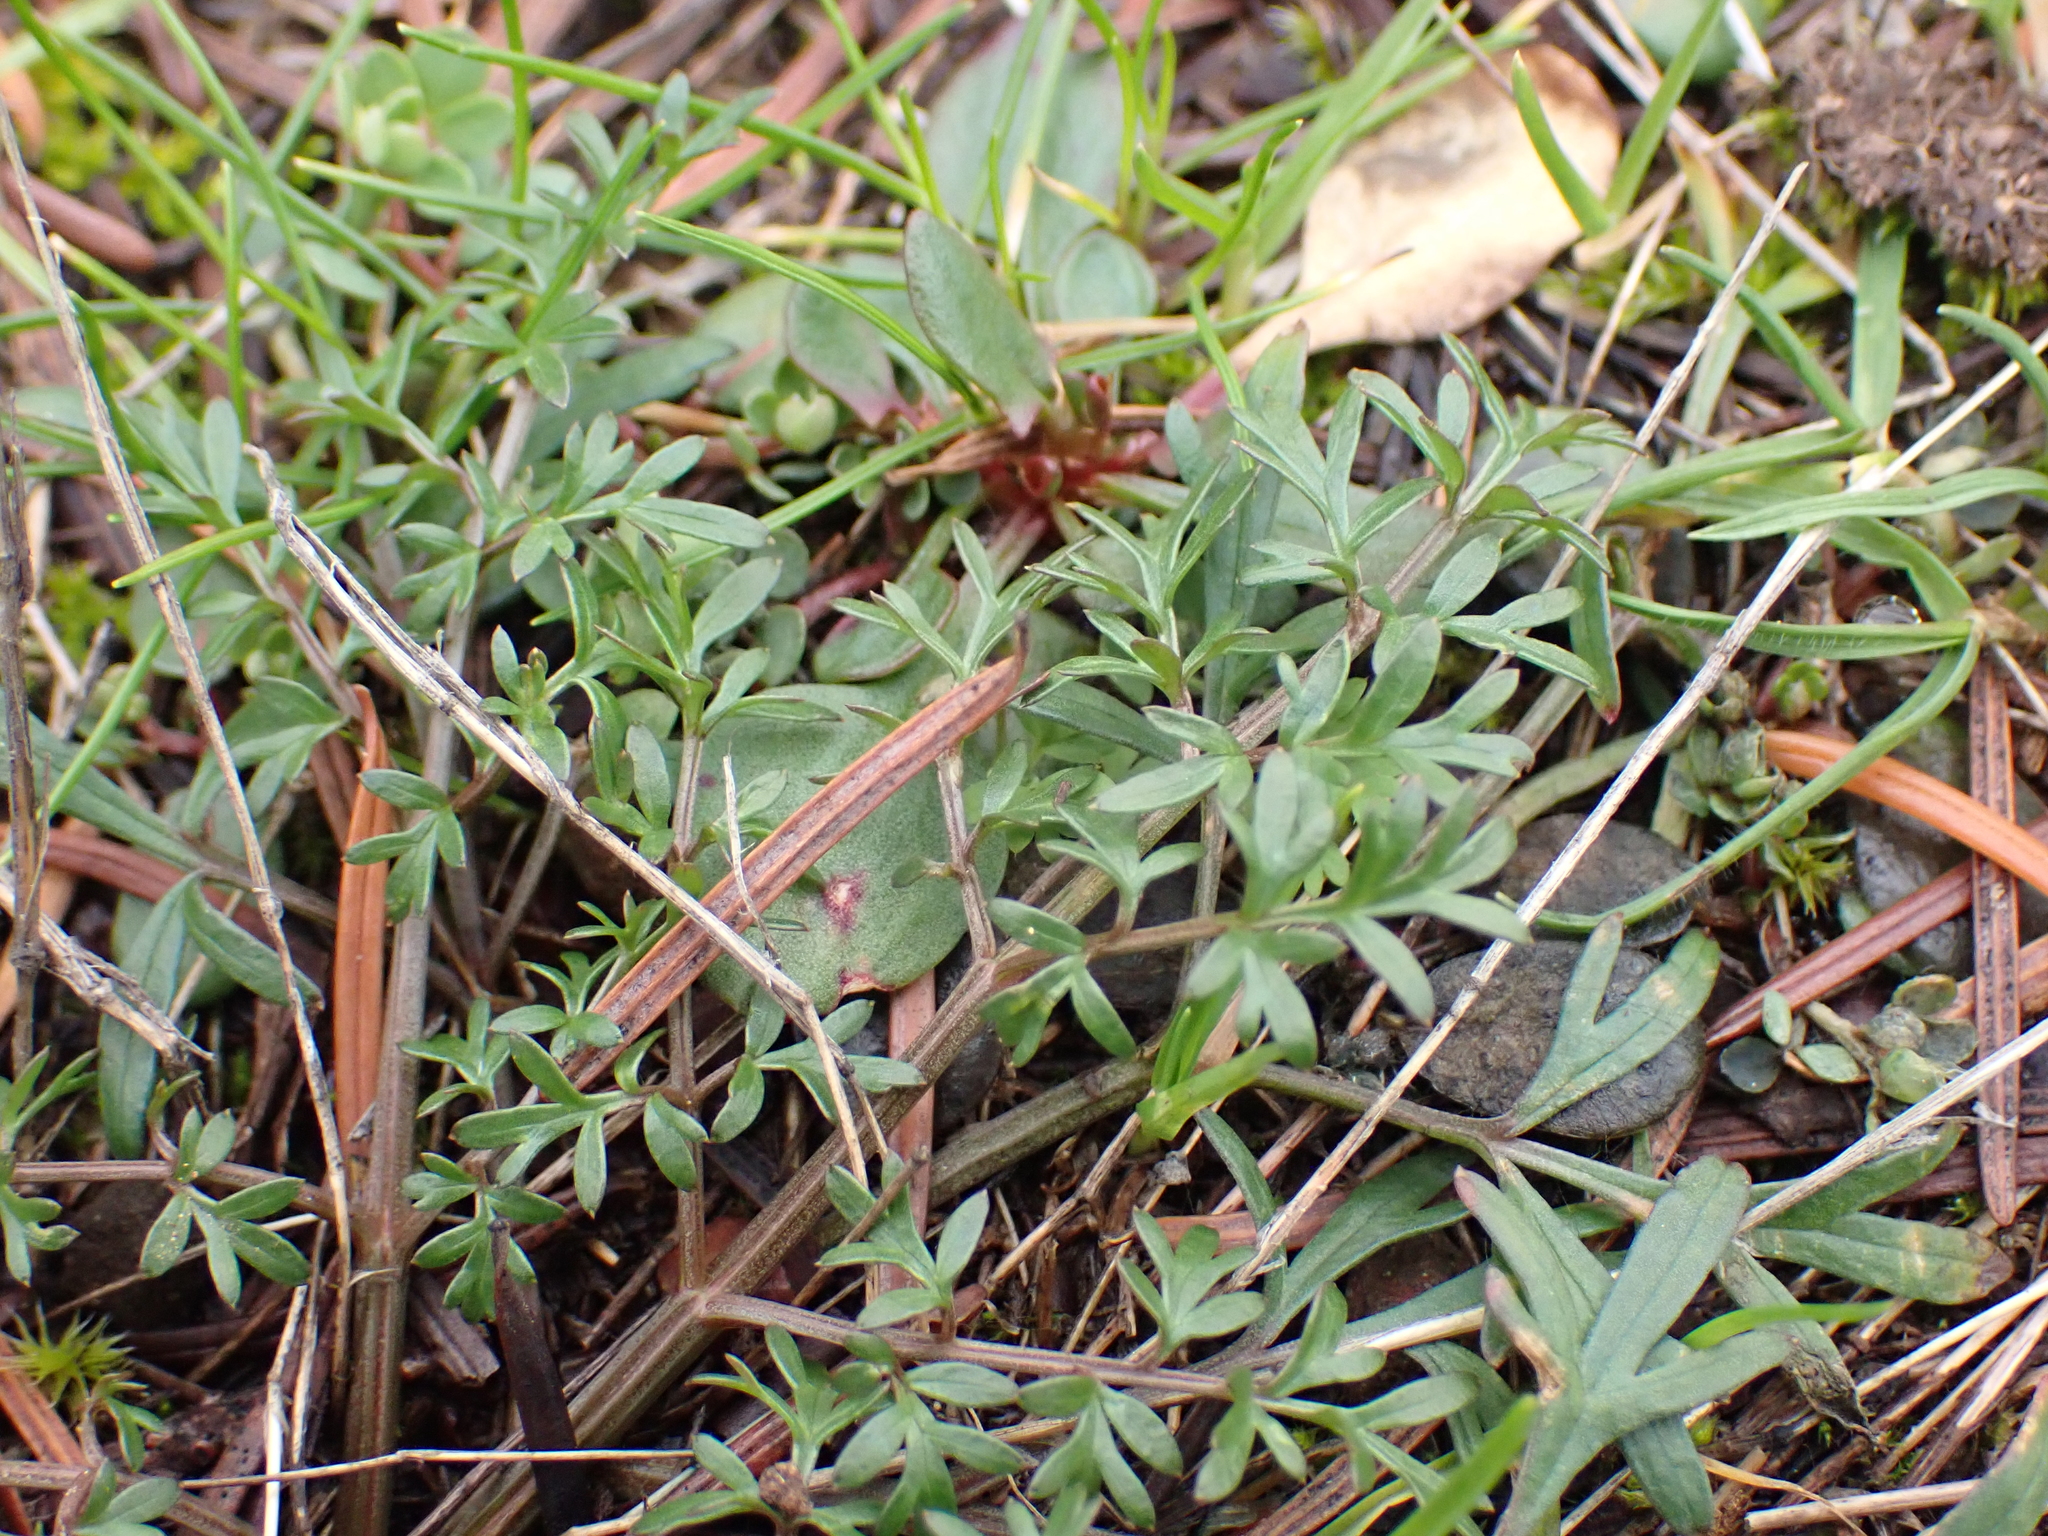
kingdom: Plantae
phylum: Tracheophyta
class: Magnoliopsida
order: Apiales
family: Apiaceae
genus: Lomatium
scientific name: Lomatium utriculatum
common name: Fine-leaf desert-parsley
